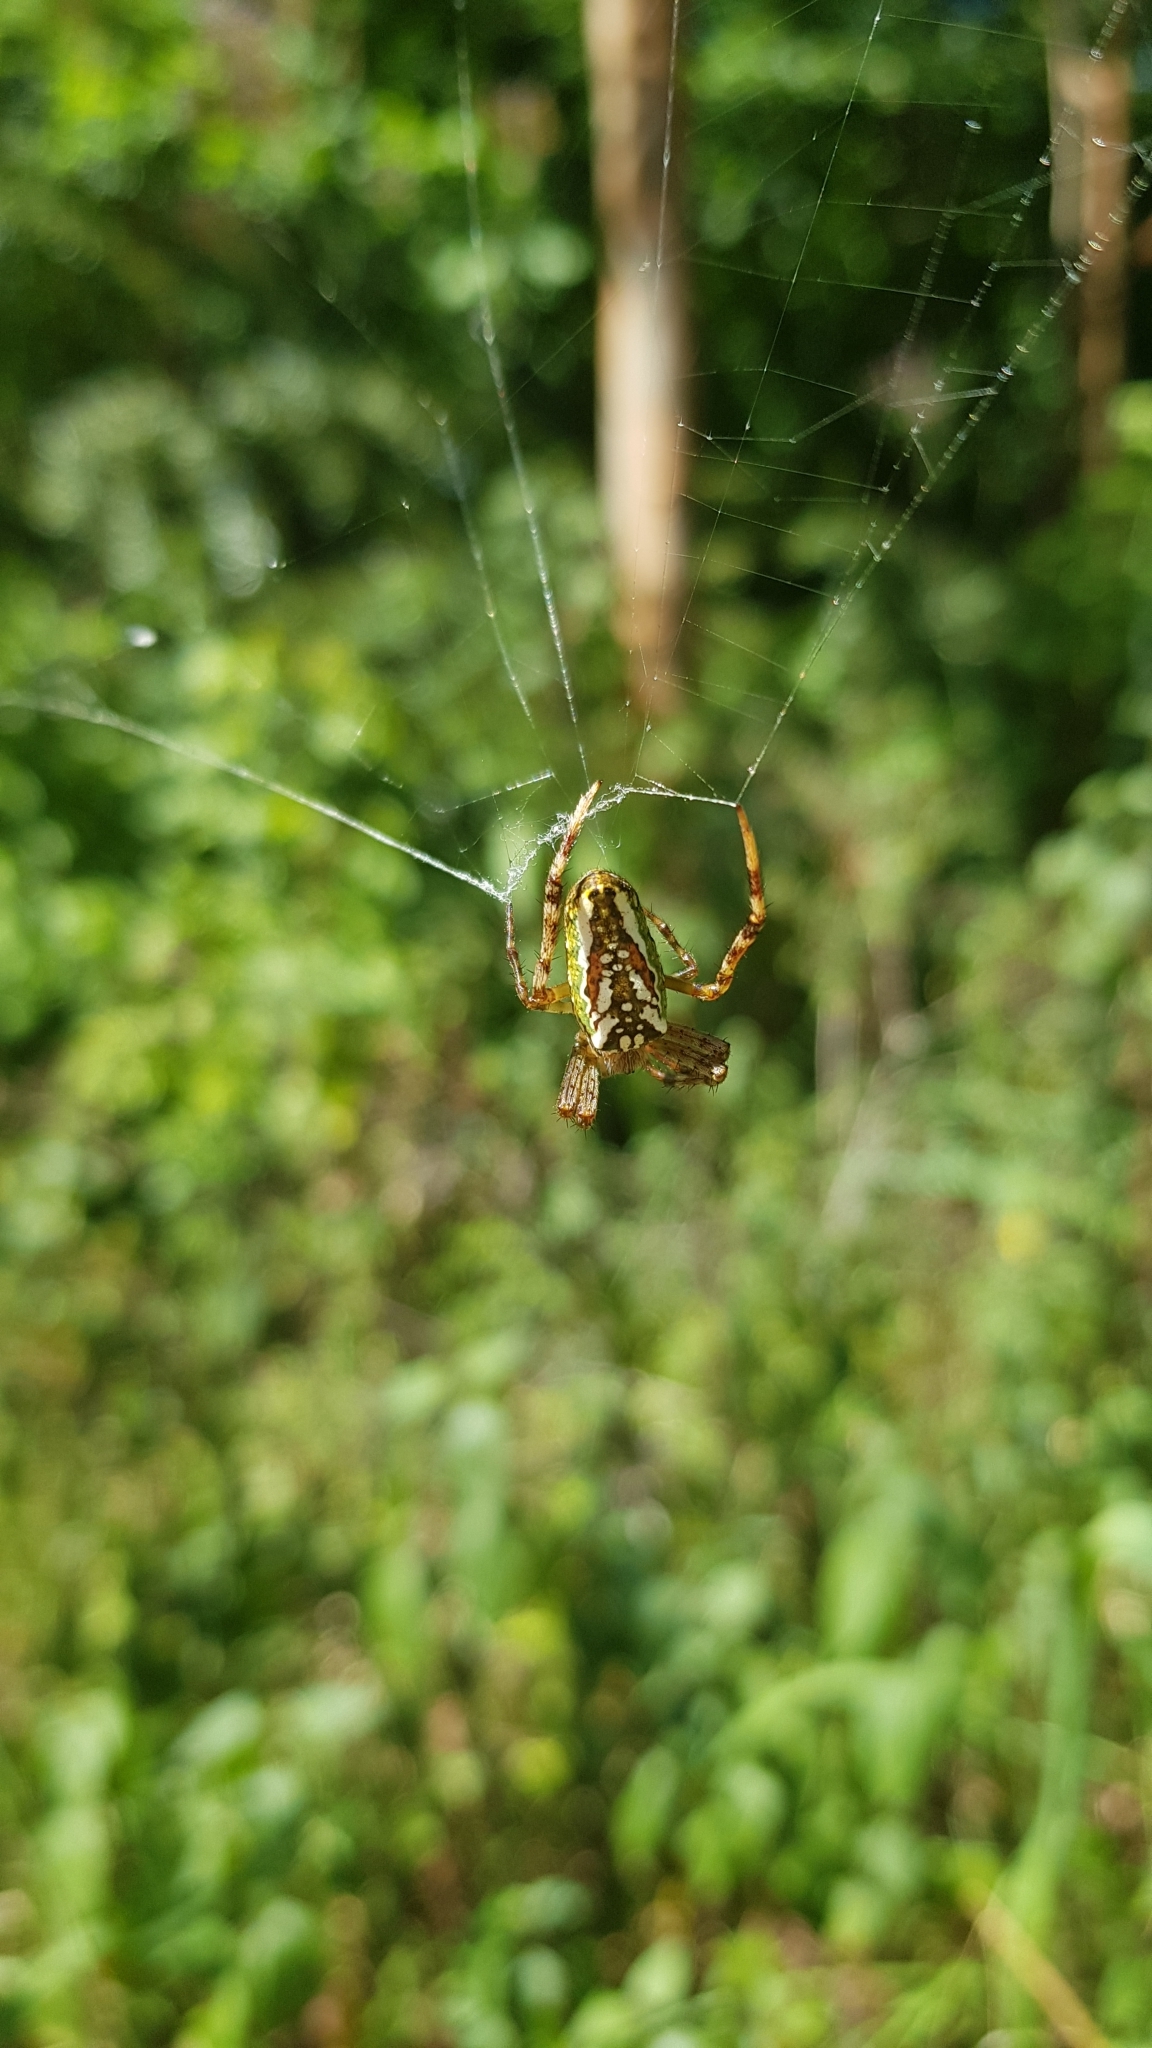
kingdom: Animalia
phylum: Arthropoda
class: Arachnida
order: Araneae
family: Araneidae
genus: Plebs
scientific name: Plebs bradleyi
